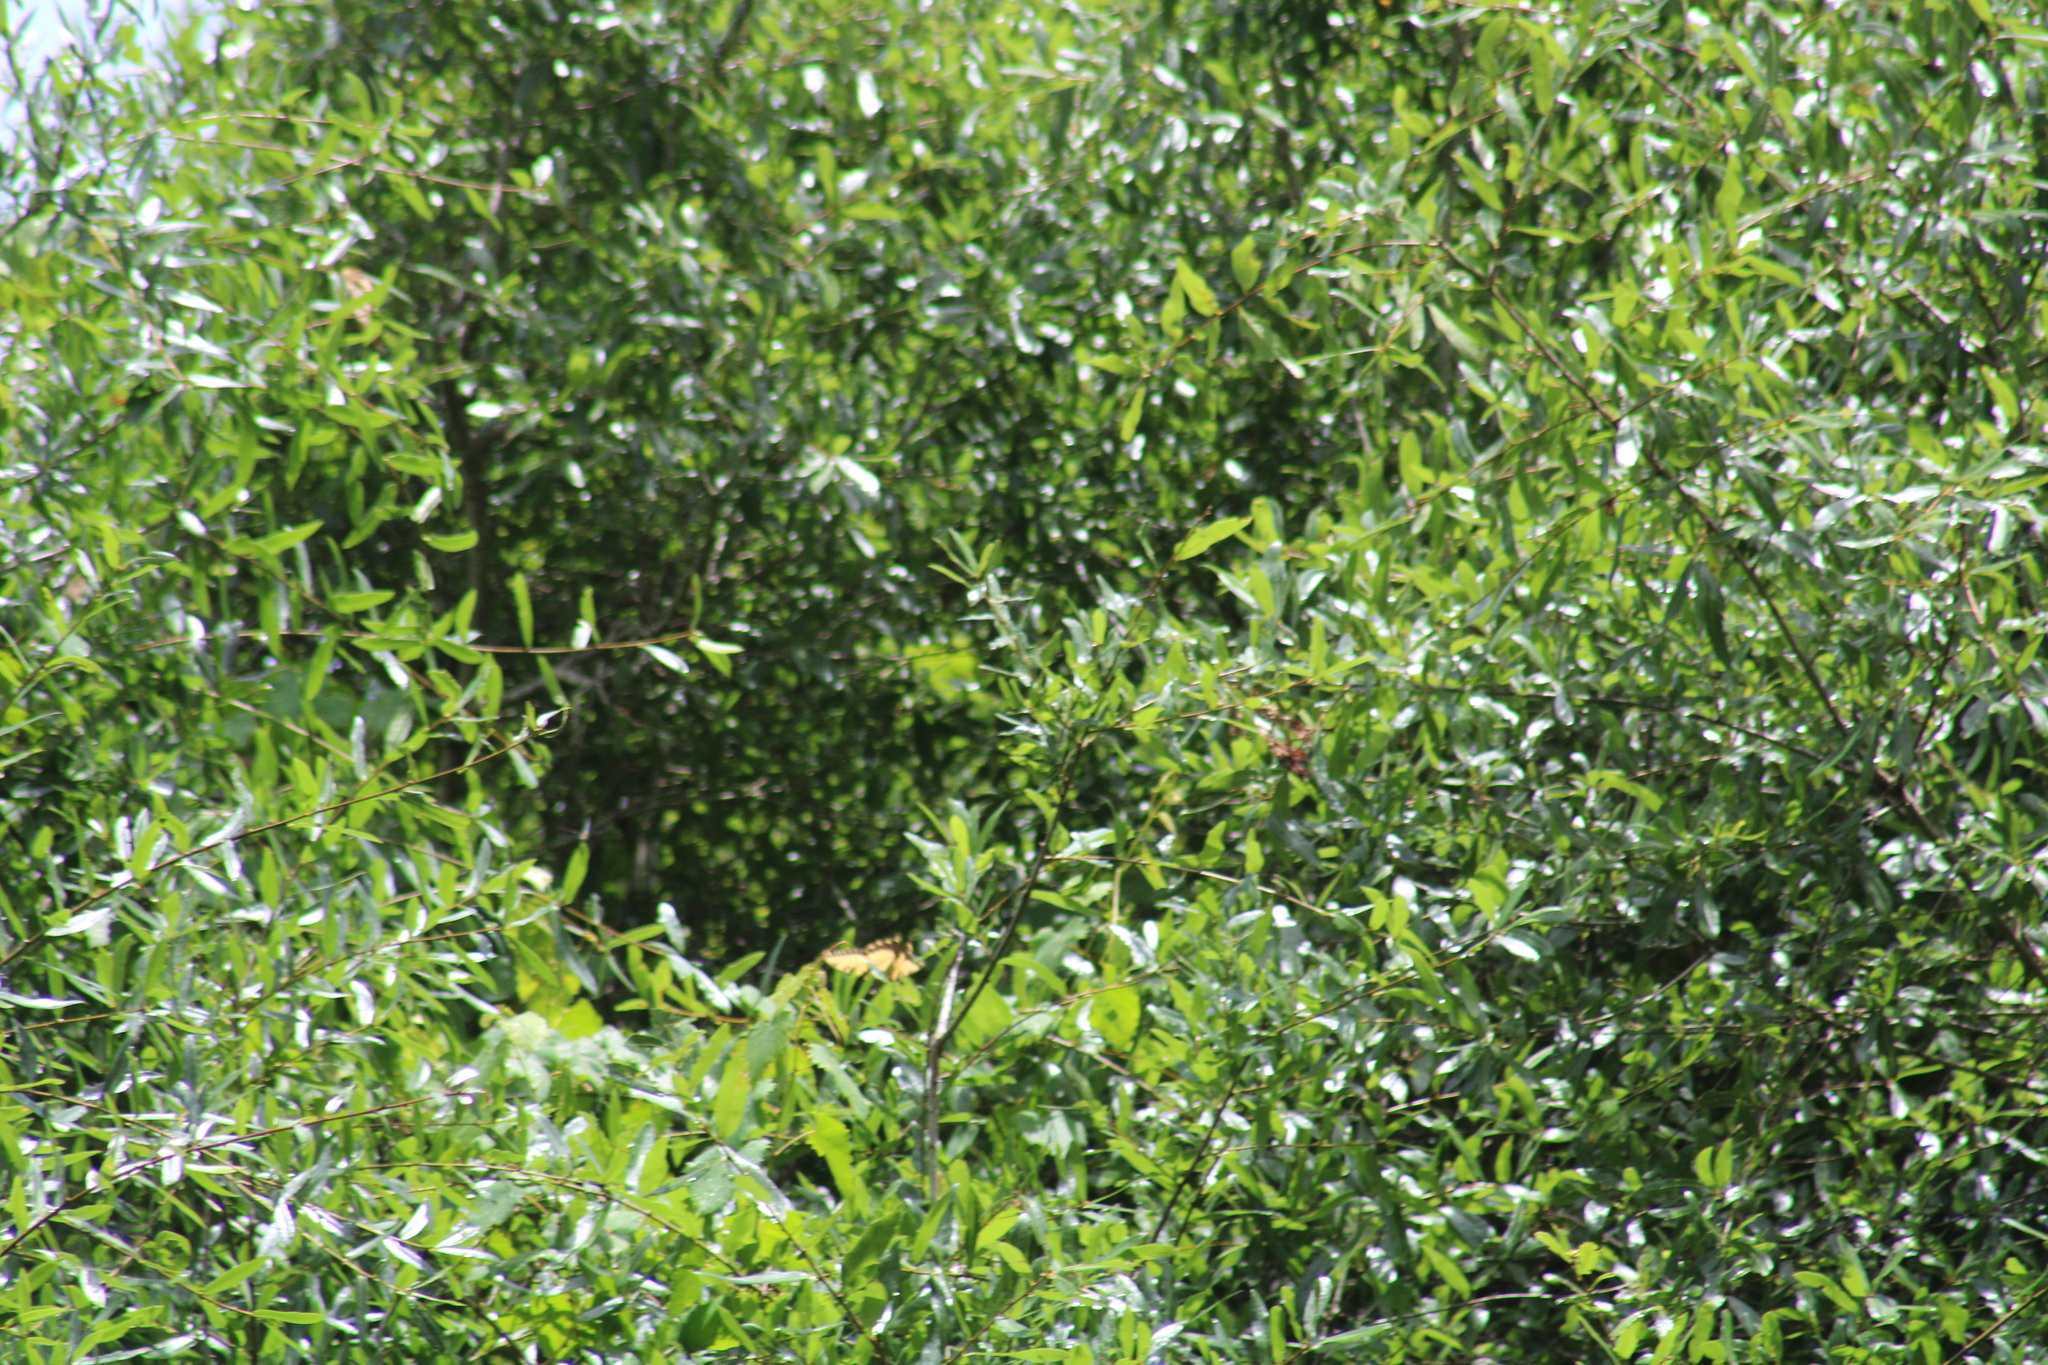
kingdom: Animalia
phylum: Arthropoda
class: Insecta
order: Lepidoptera
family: Papilionidae
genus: Papilio
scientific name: Papilio glaucus
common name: Tiger swallowtail
